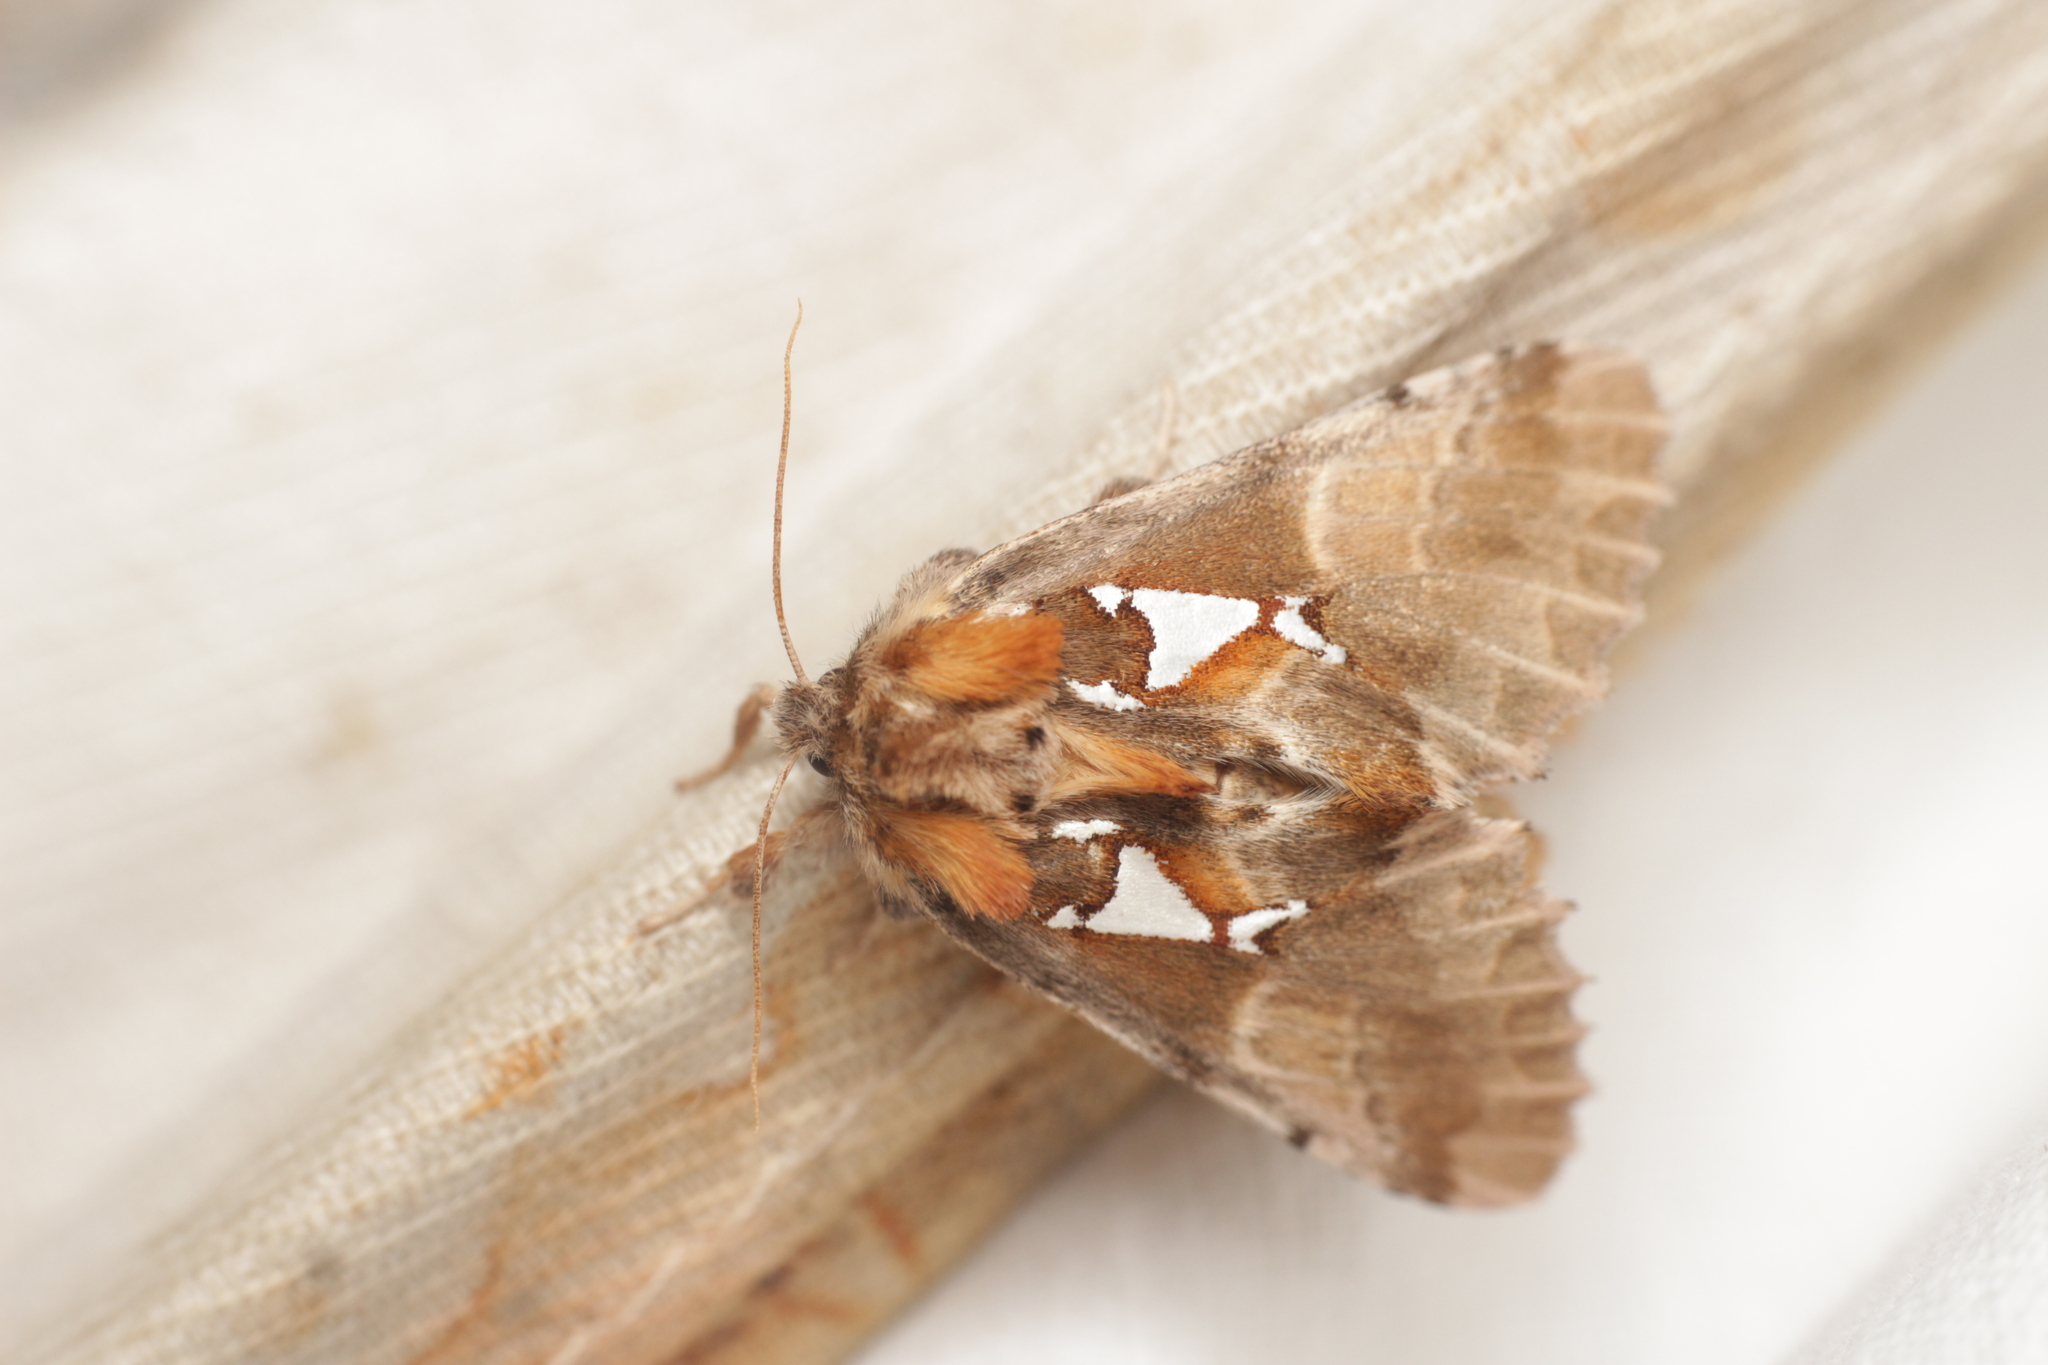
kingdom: Animalia
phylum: Arthropoda
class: Insecta
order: Lepidoptera
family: Notodontidae
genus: Spatalia
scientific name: Spatalia argentina
